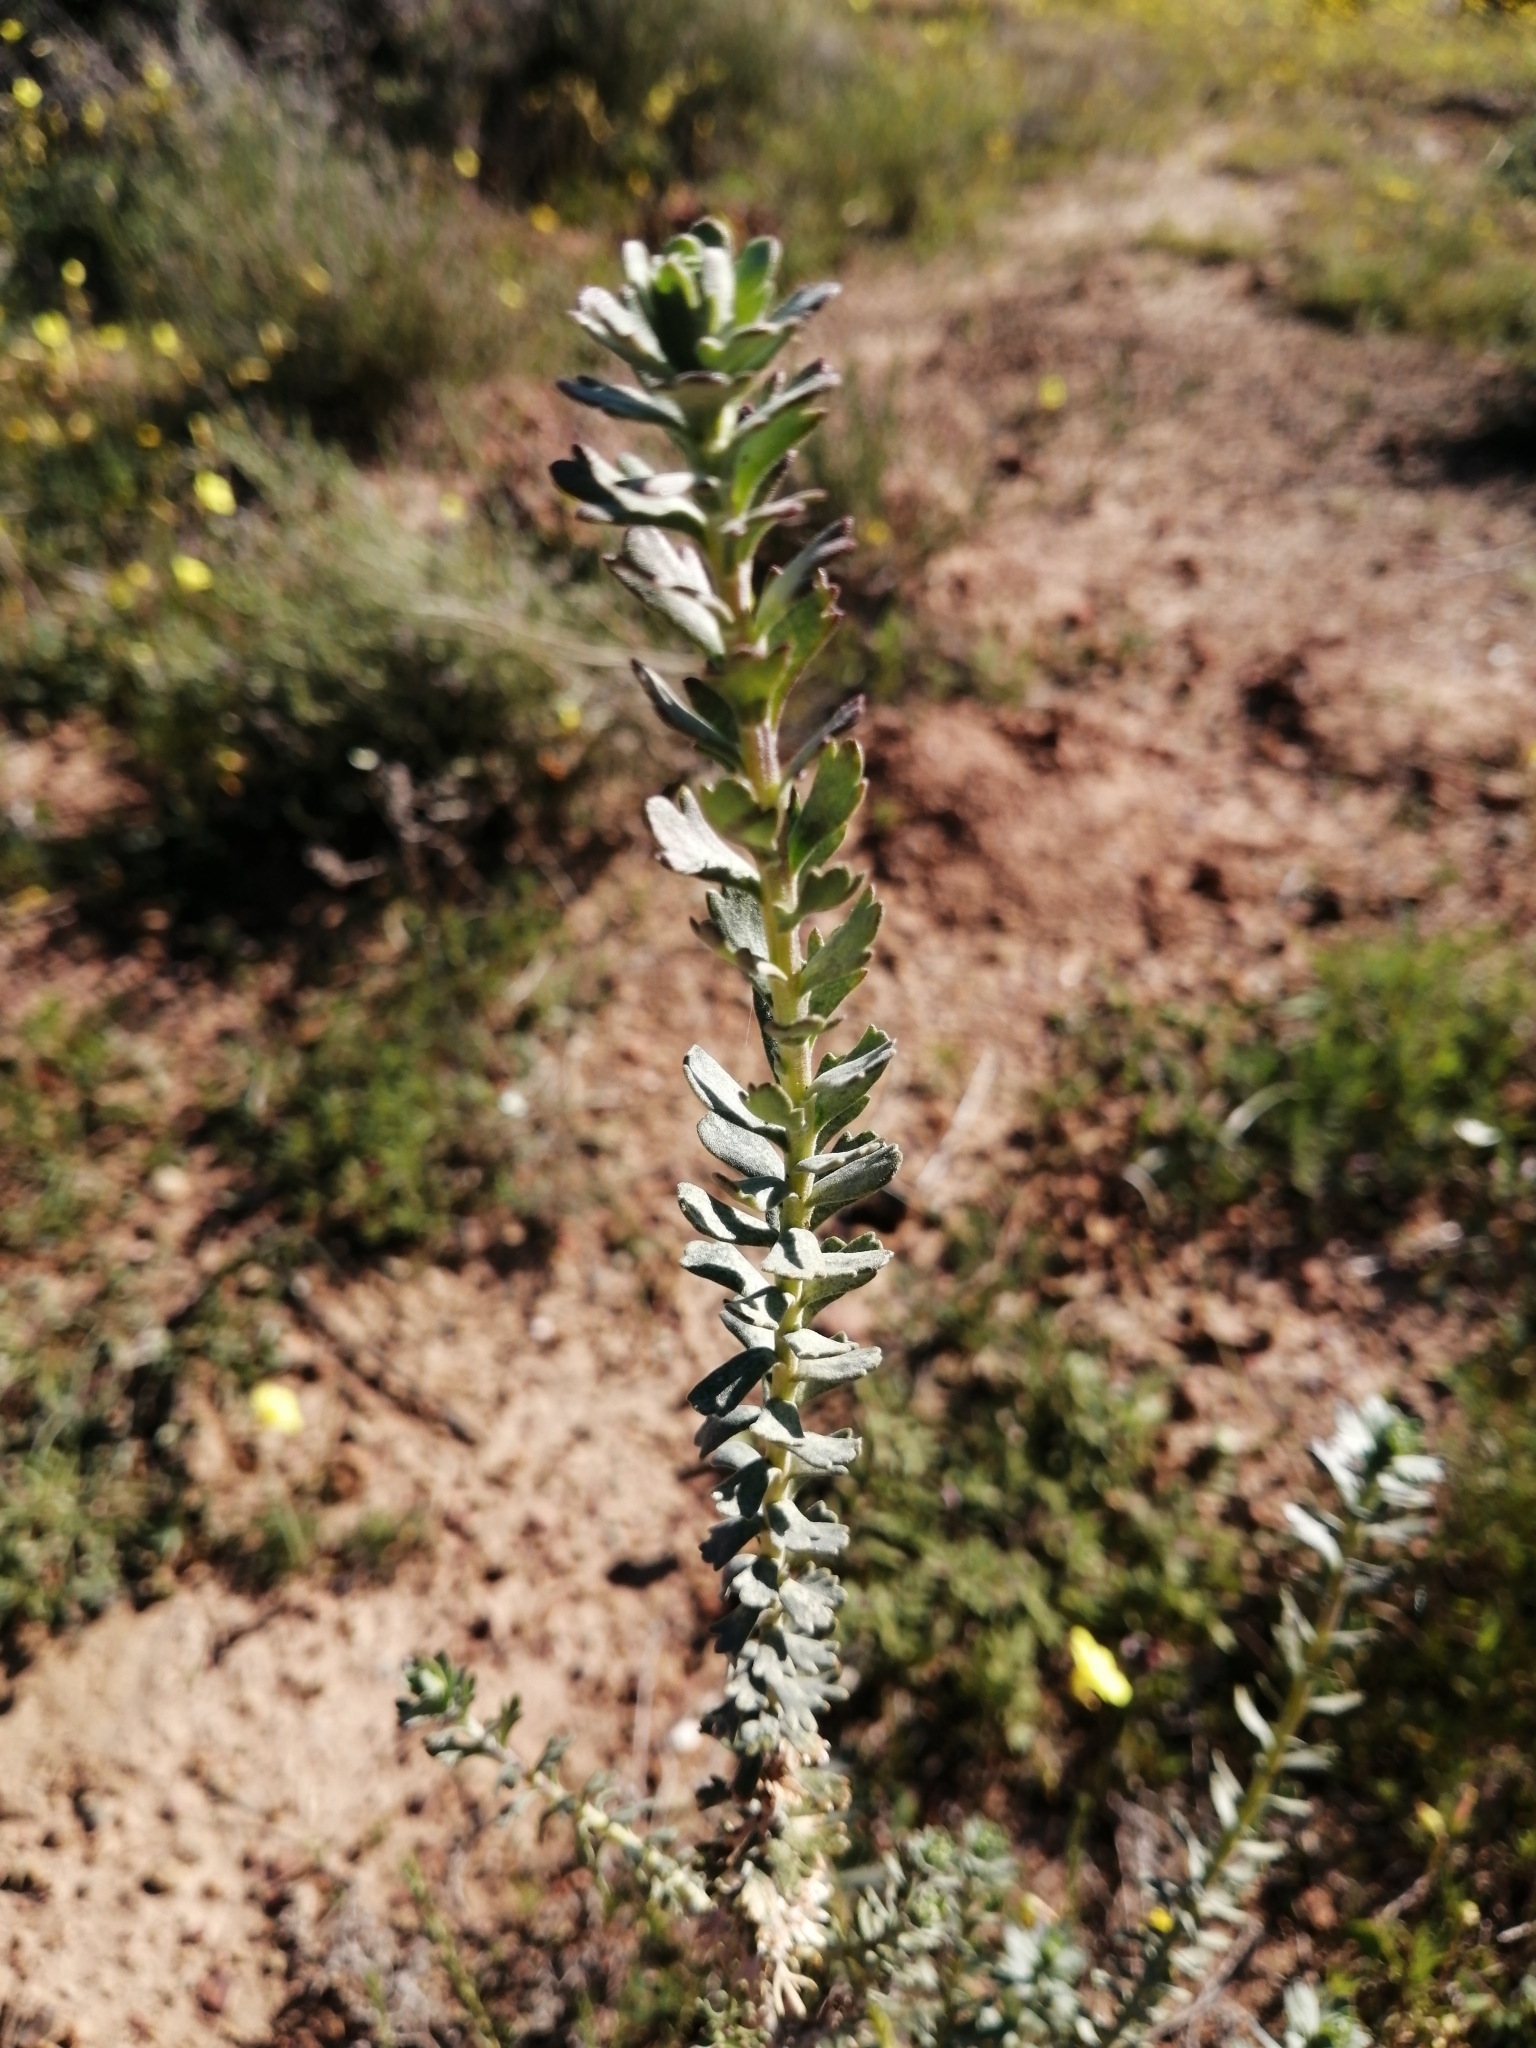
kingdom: Plantae
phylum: Tracheophyta
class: Magnoliopsida
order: Asterales
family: Asteraceae
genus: Athanasia
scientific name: Athanasia trifurcata
